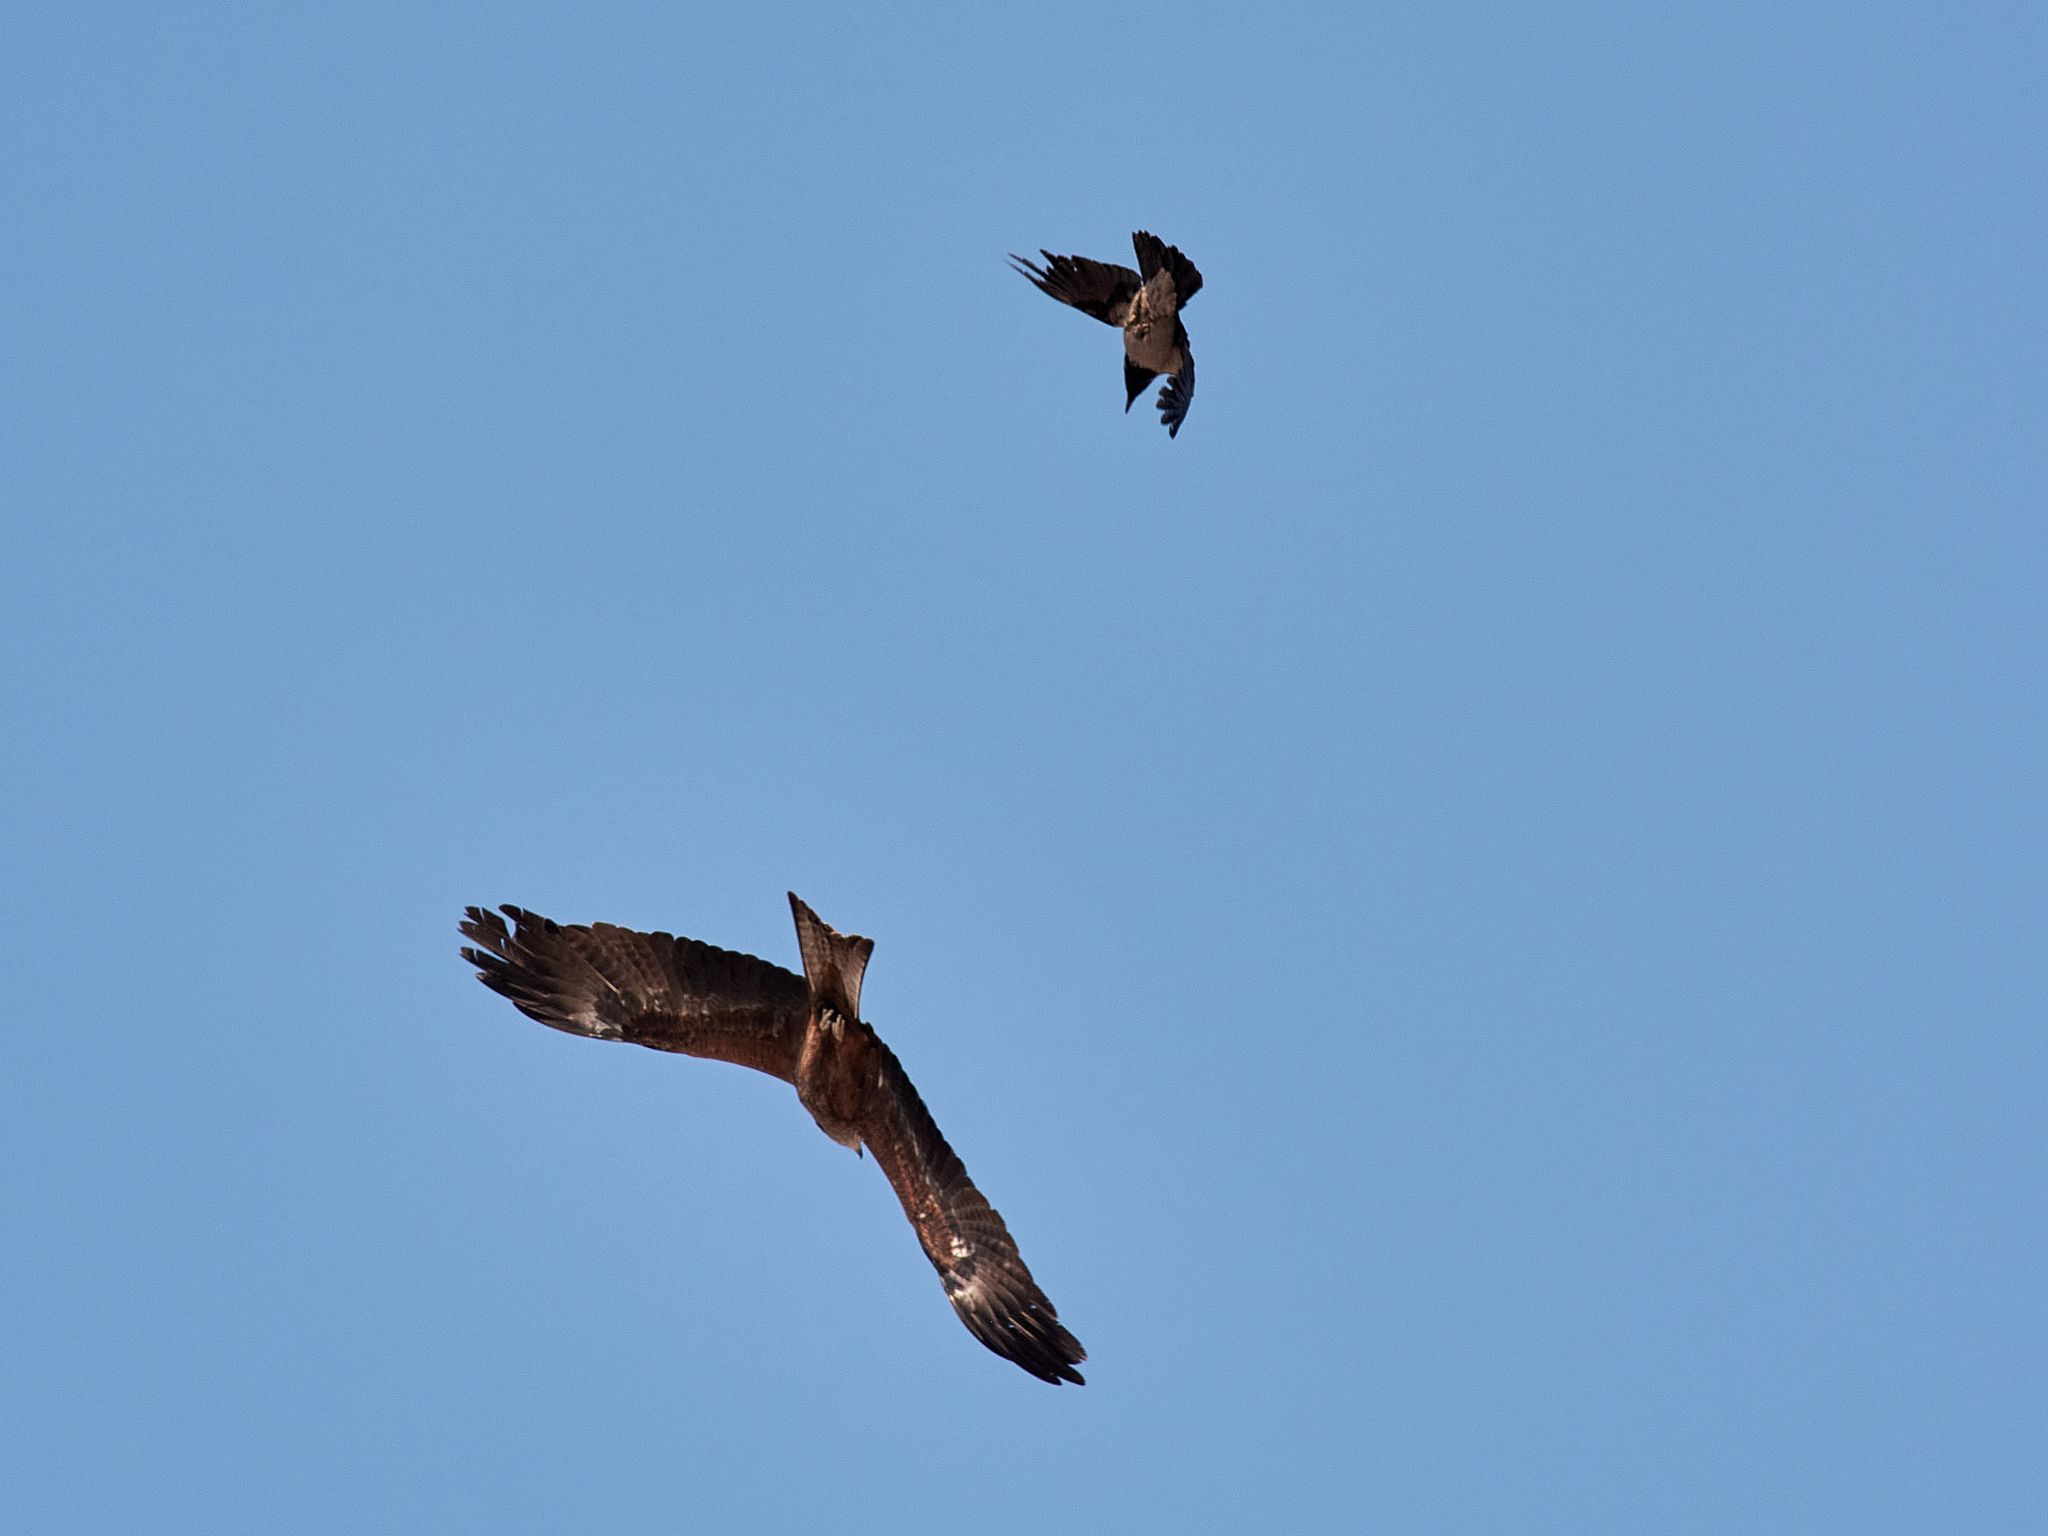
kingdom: Animalia
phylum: Chordata
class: Aves
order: Accipitriformes
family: Accipitridae
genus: Milvus
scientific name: Milvus migrans
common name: Black kite
